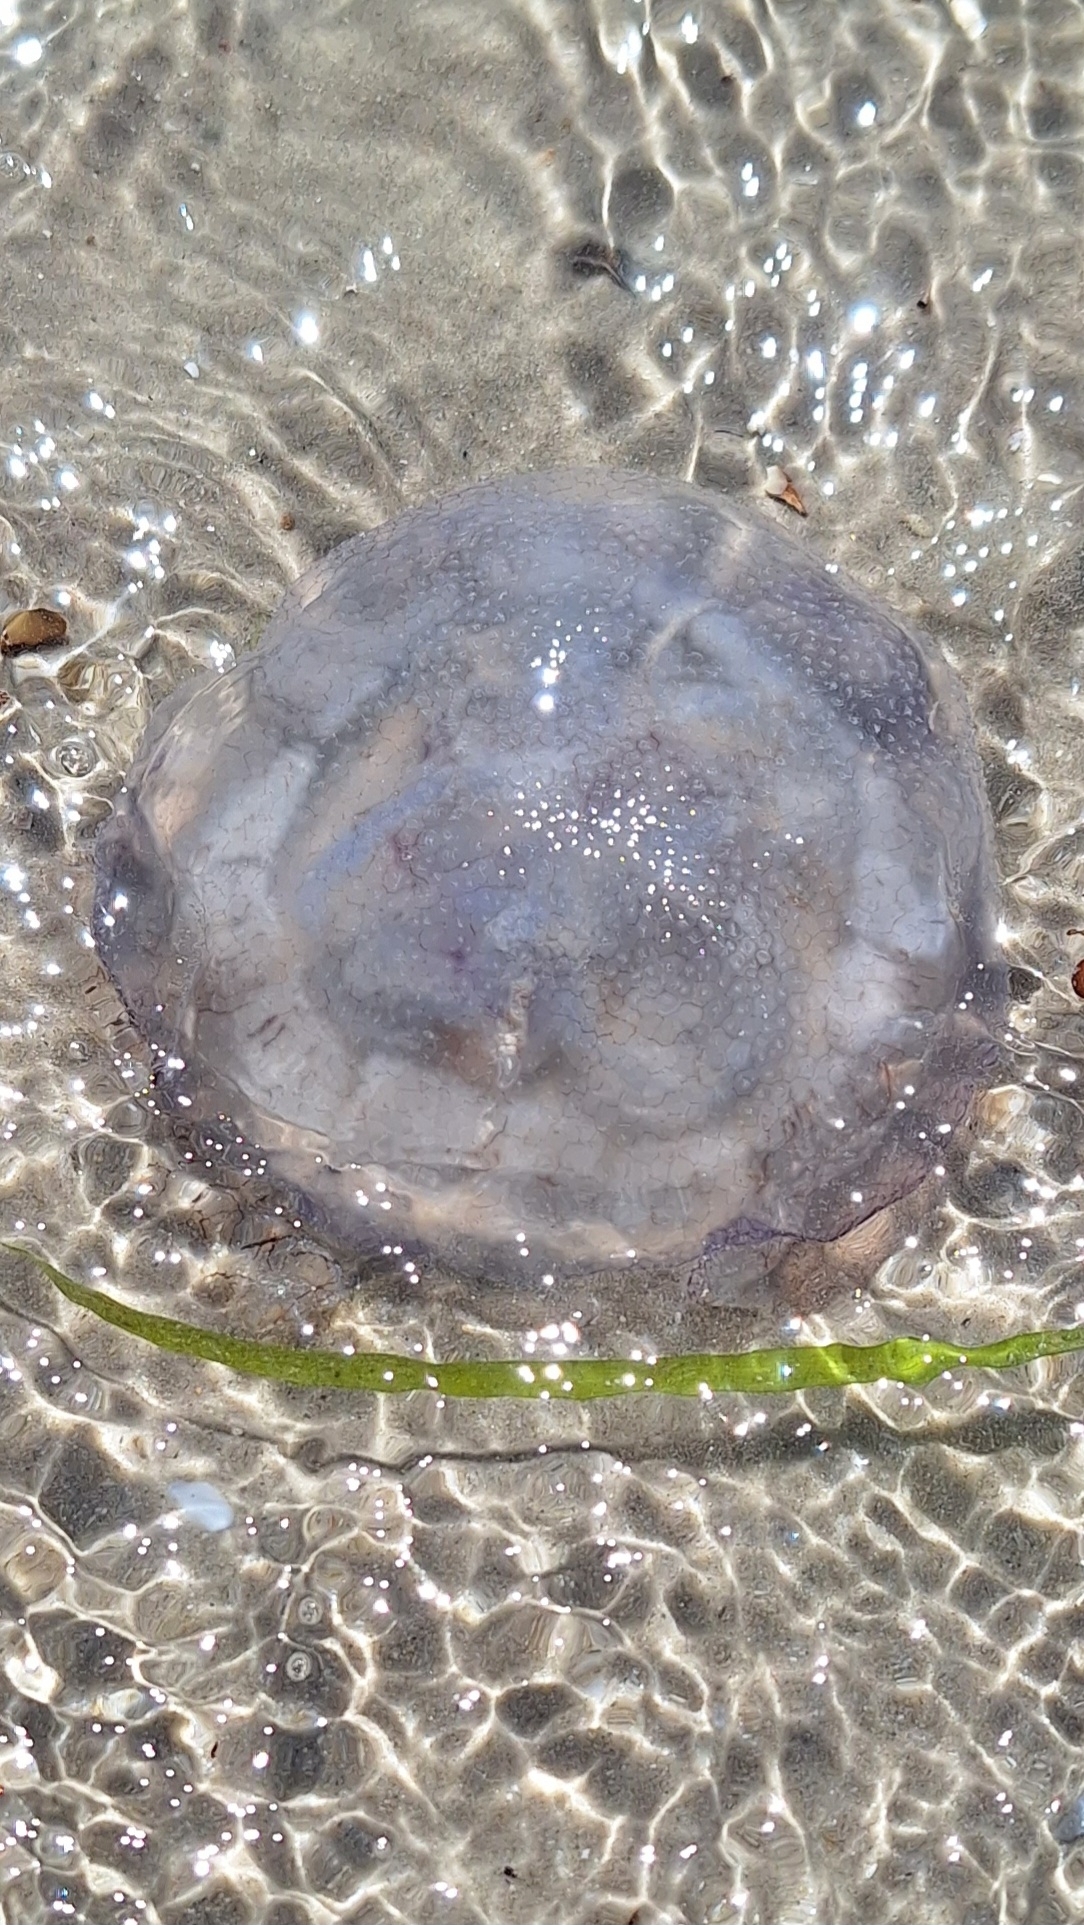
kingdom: Animalia
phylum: Cnidaria
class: Scyphozoa
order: Rhizostomeae
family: Lychnorhizidae
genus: Pseudorhiza
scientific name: Pseudorhiza haeckeli
